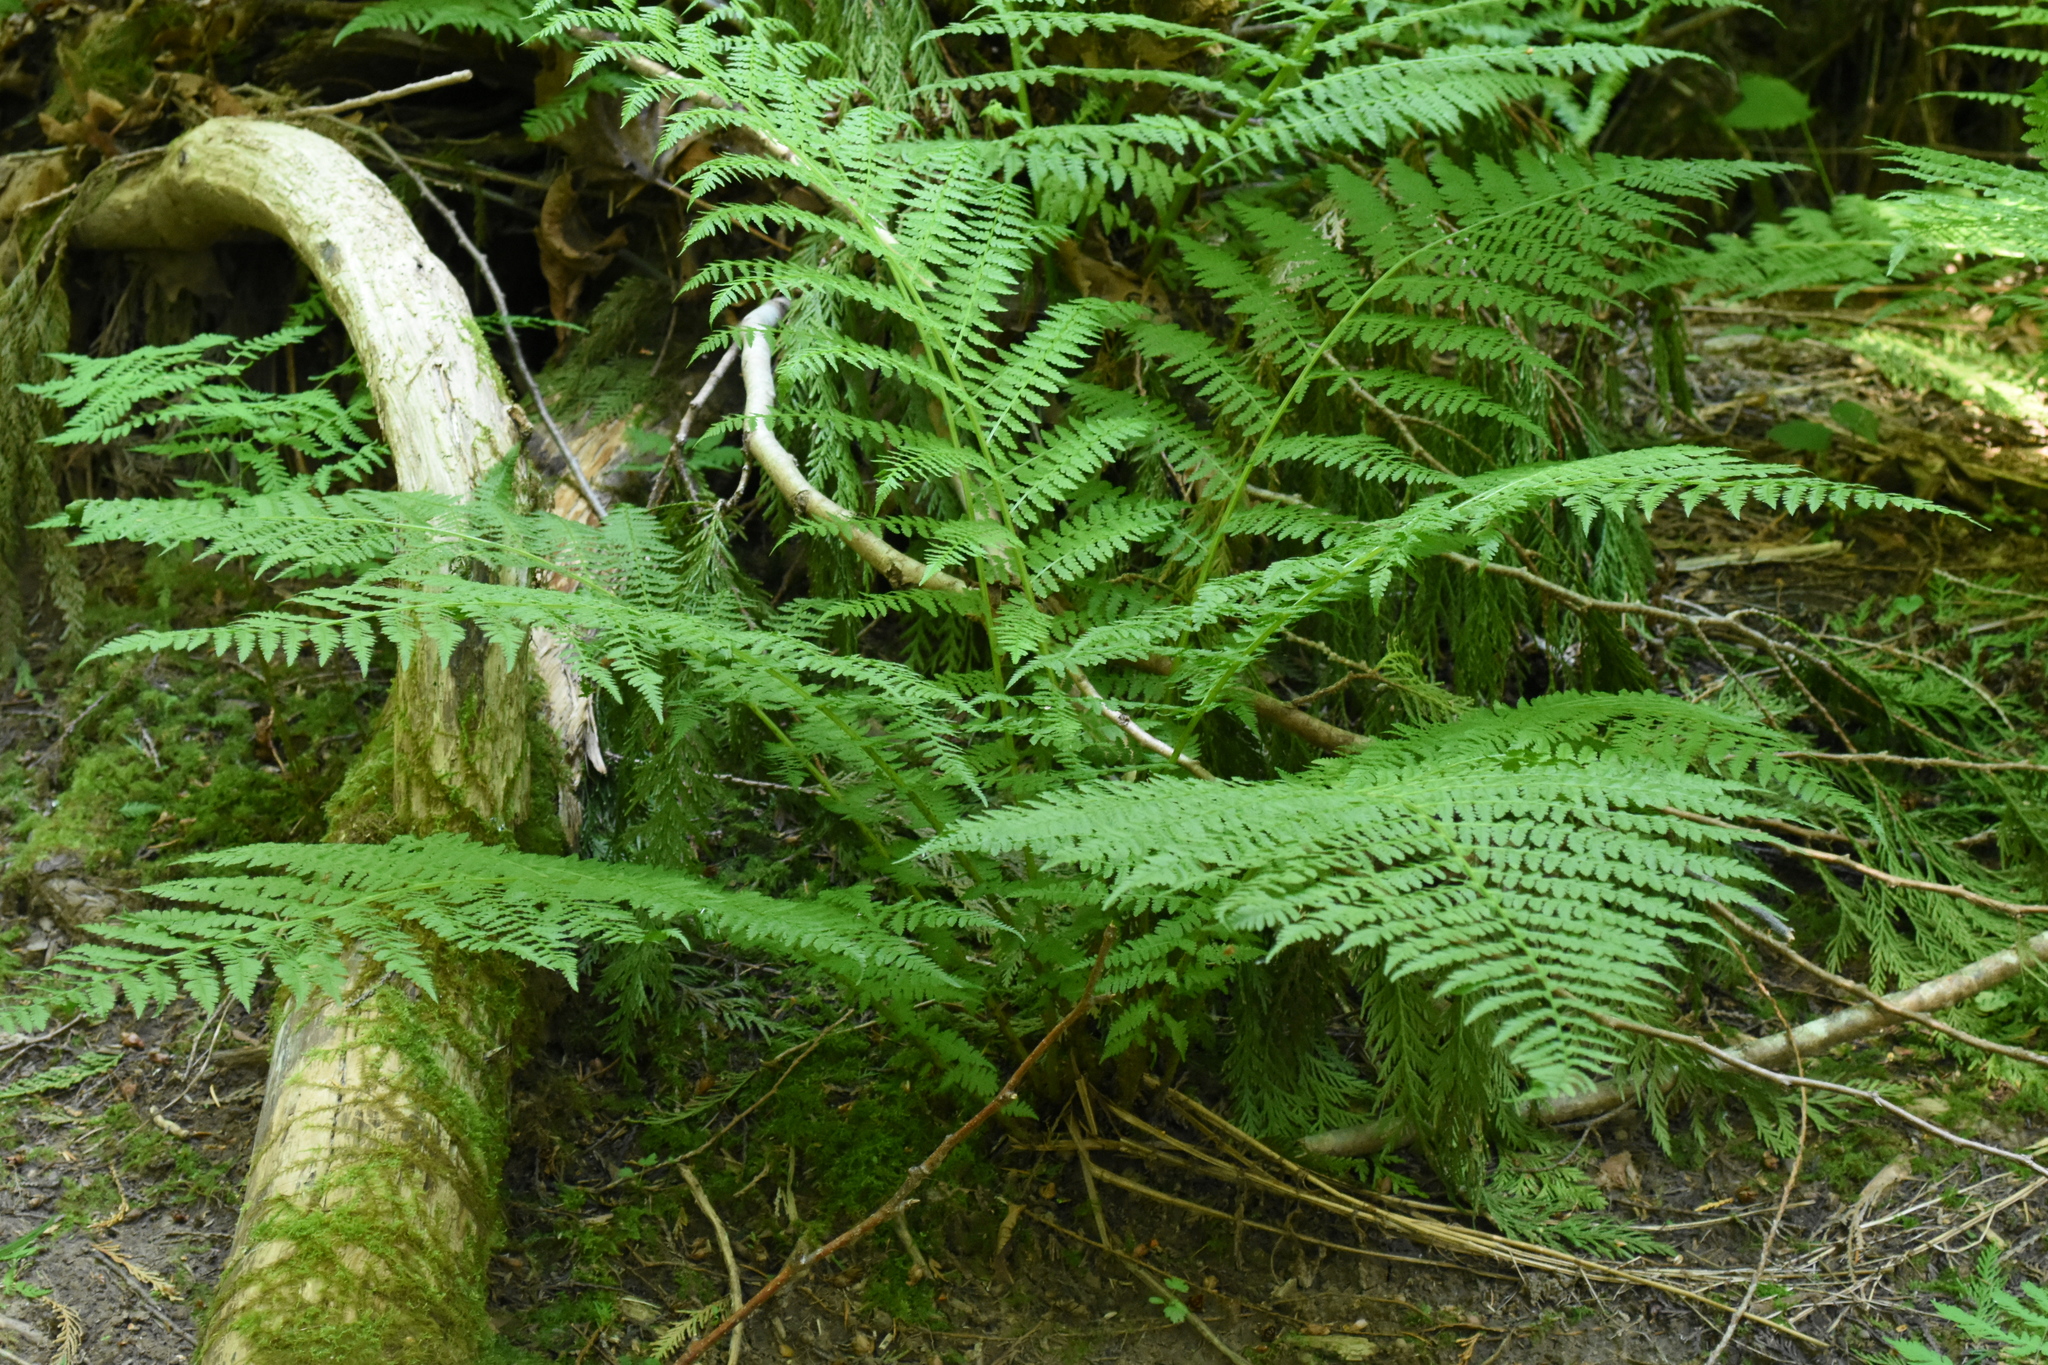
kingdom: Plantae
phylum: Tracheophyta
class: Polypodiopsida
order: Polypodiales
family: Athyriaceae
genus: Athyrium
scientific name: Athyrium filix-femina
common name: Lady fern
